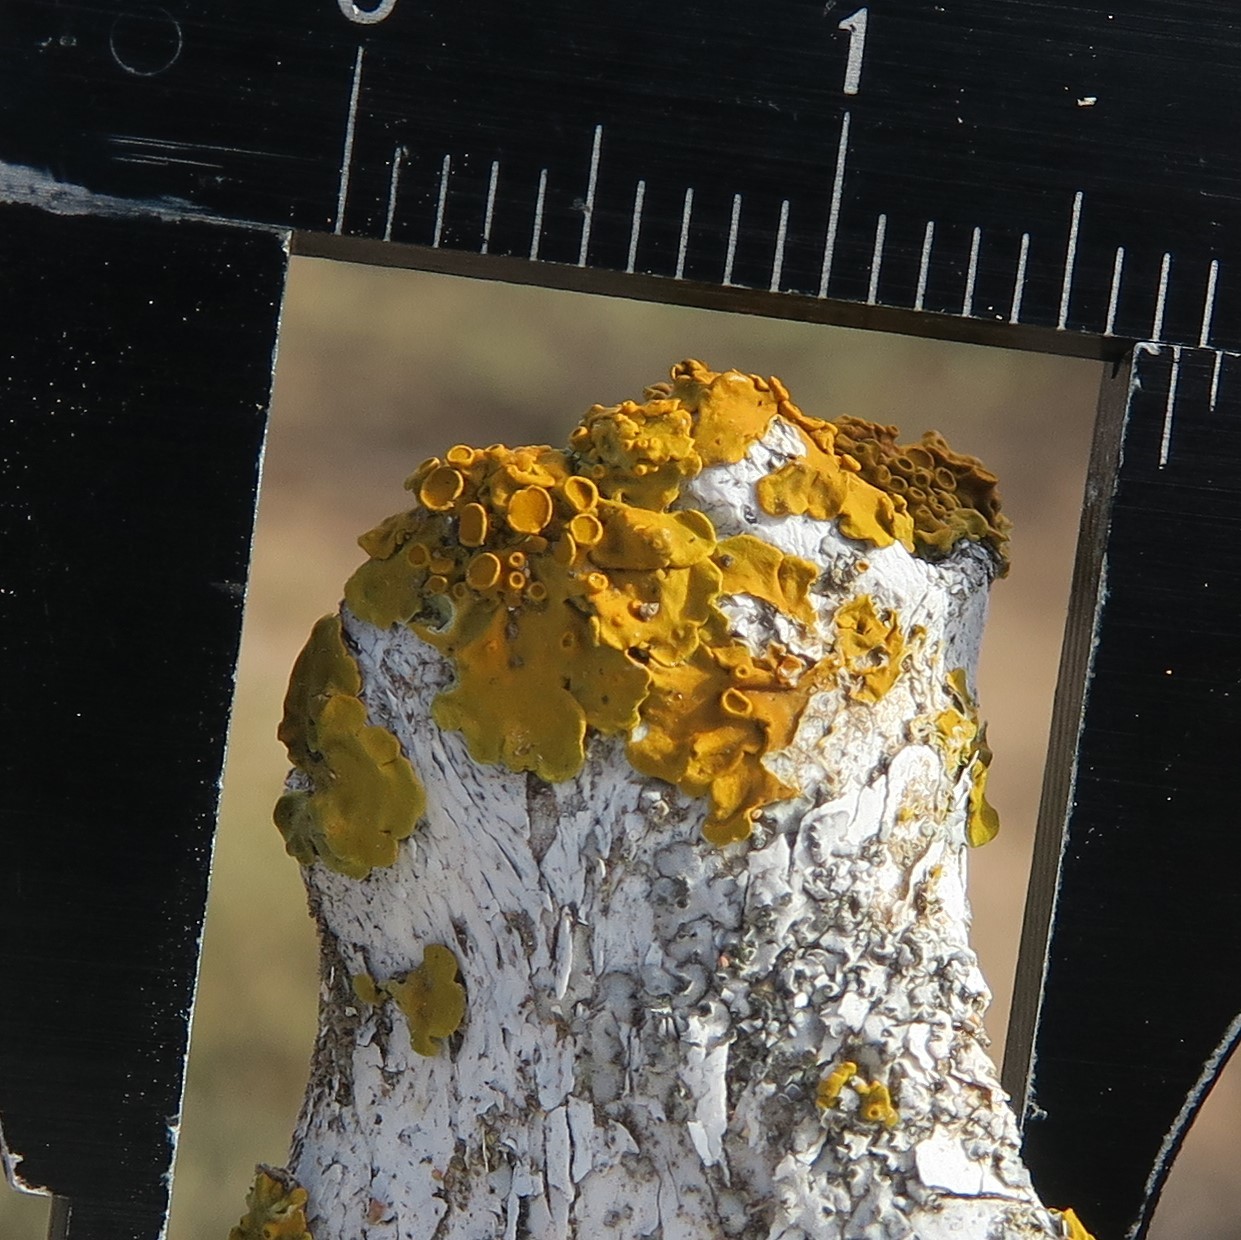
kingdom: Fungi
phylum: Ascomycota
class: Lecanoromycetes
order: Teloschistales
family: Teloschistaceae
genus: Xanthoria
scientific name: Xanthoria parietina
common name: Common orange lichen
